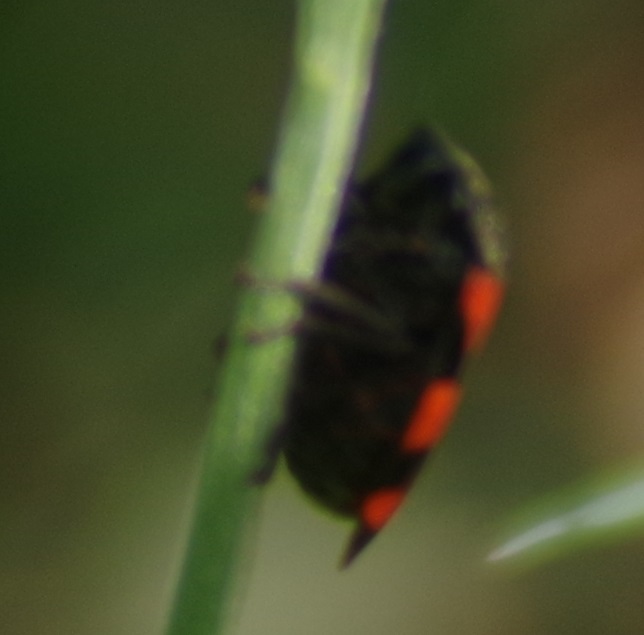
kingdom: Animalia
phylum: Arthropoda
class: Insecta
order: Hemiptera
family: Cercopidae
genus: Cercopis
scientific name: Cercopis vulnerata
